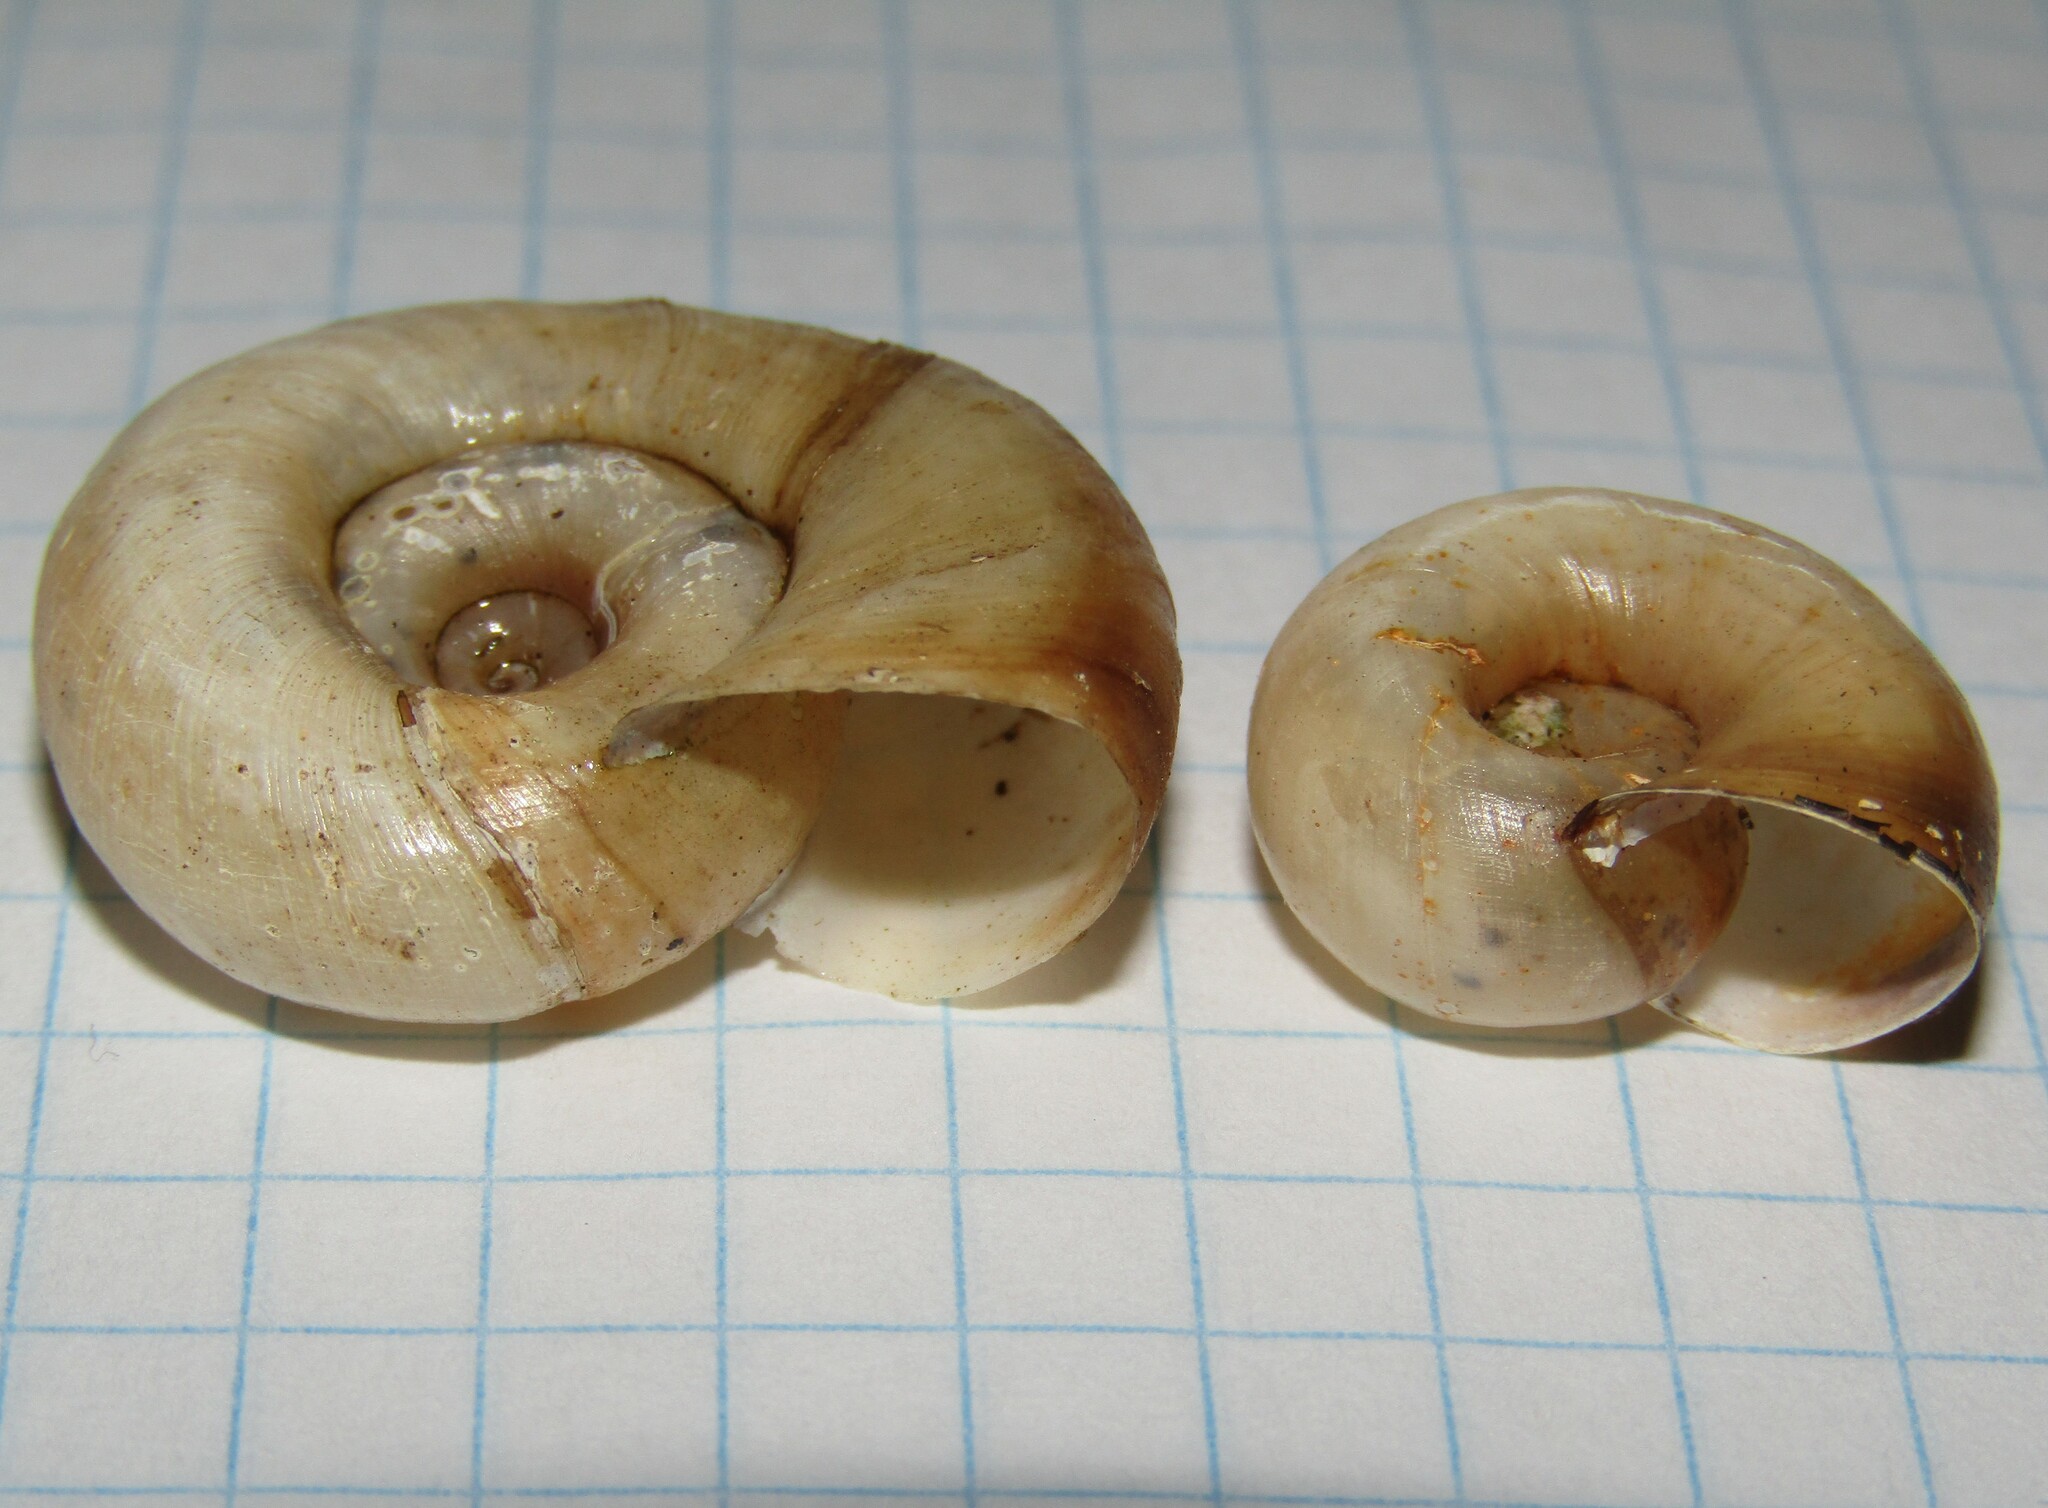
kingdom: Animalia
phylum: Mollusca
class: Gastropoda
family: Planorbidae
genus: Planorbarius
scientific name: Planorbarius corneus
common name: Great ramshorn
